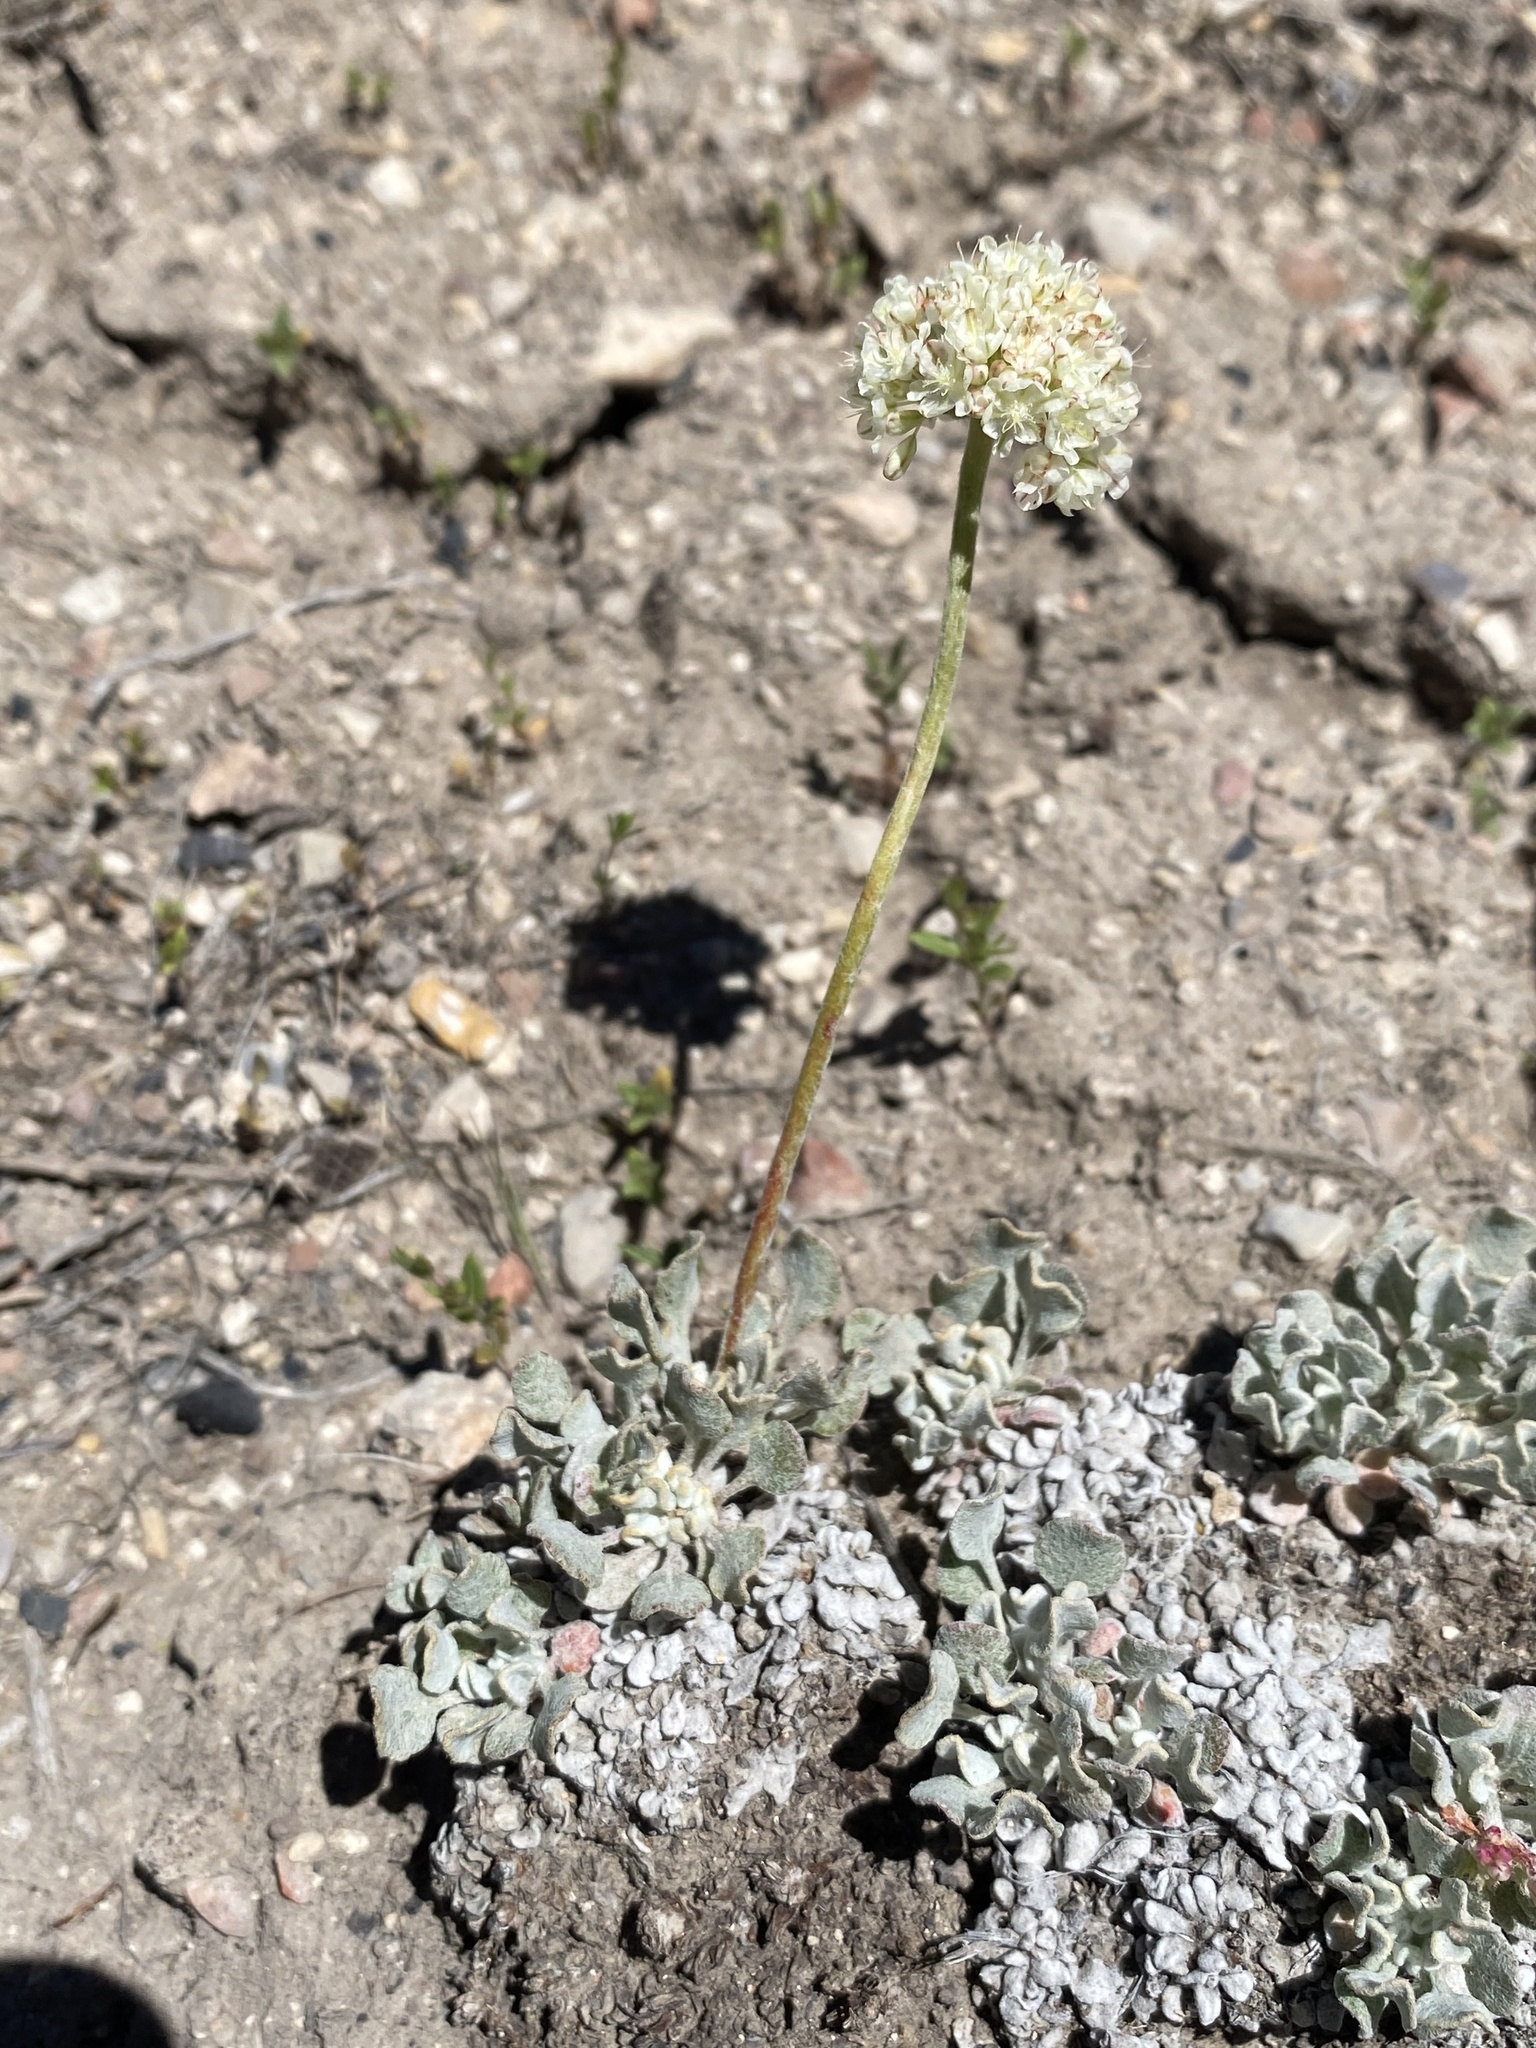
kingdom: Plantae
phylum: Tracheophyta
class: Magnoliopsida
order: Caryophyllales
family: Polygonaceae
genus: Eriogonum
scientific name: Eriogonum ovalifolium
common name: Cushion buckwheat
